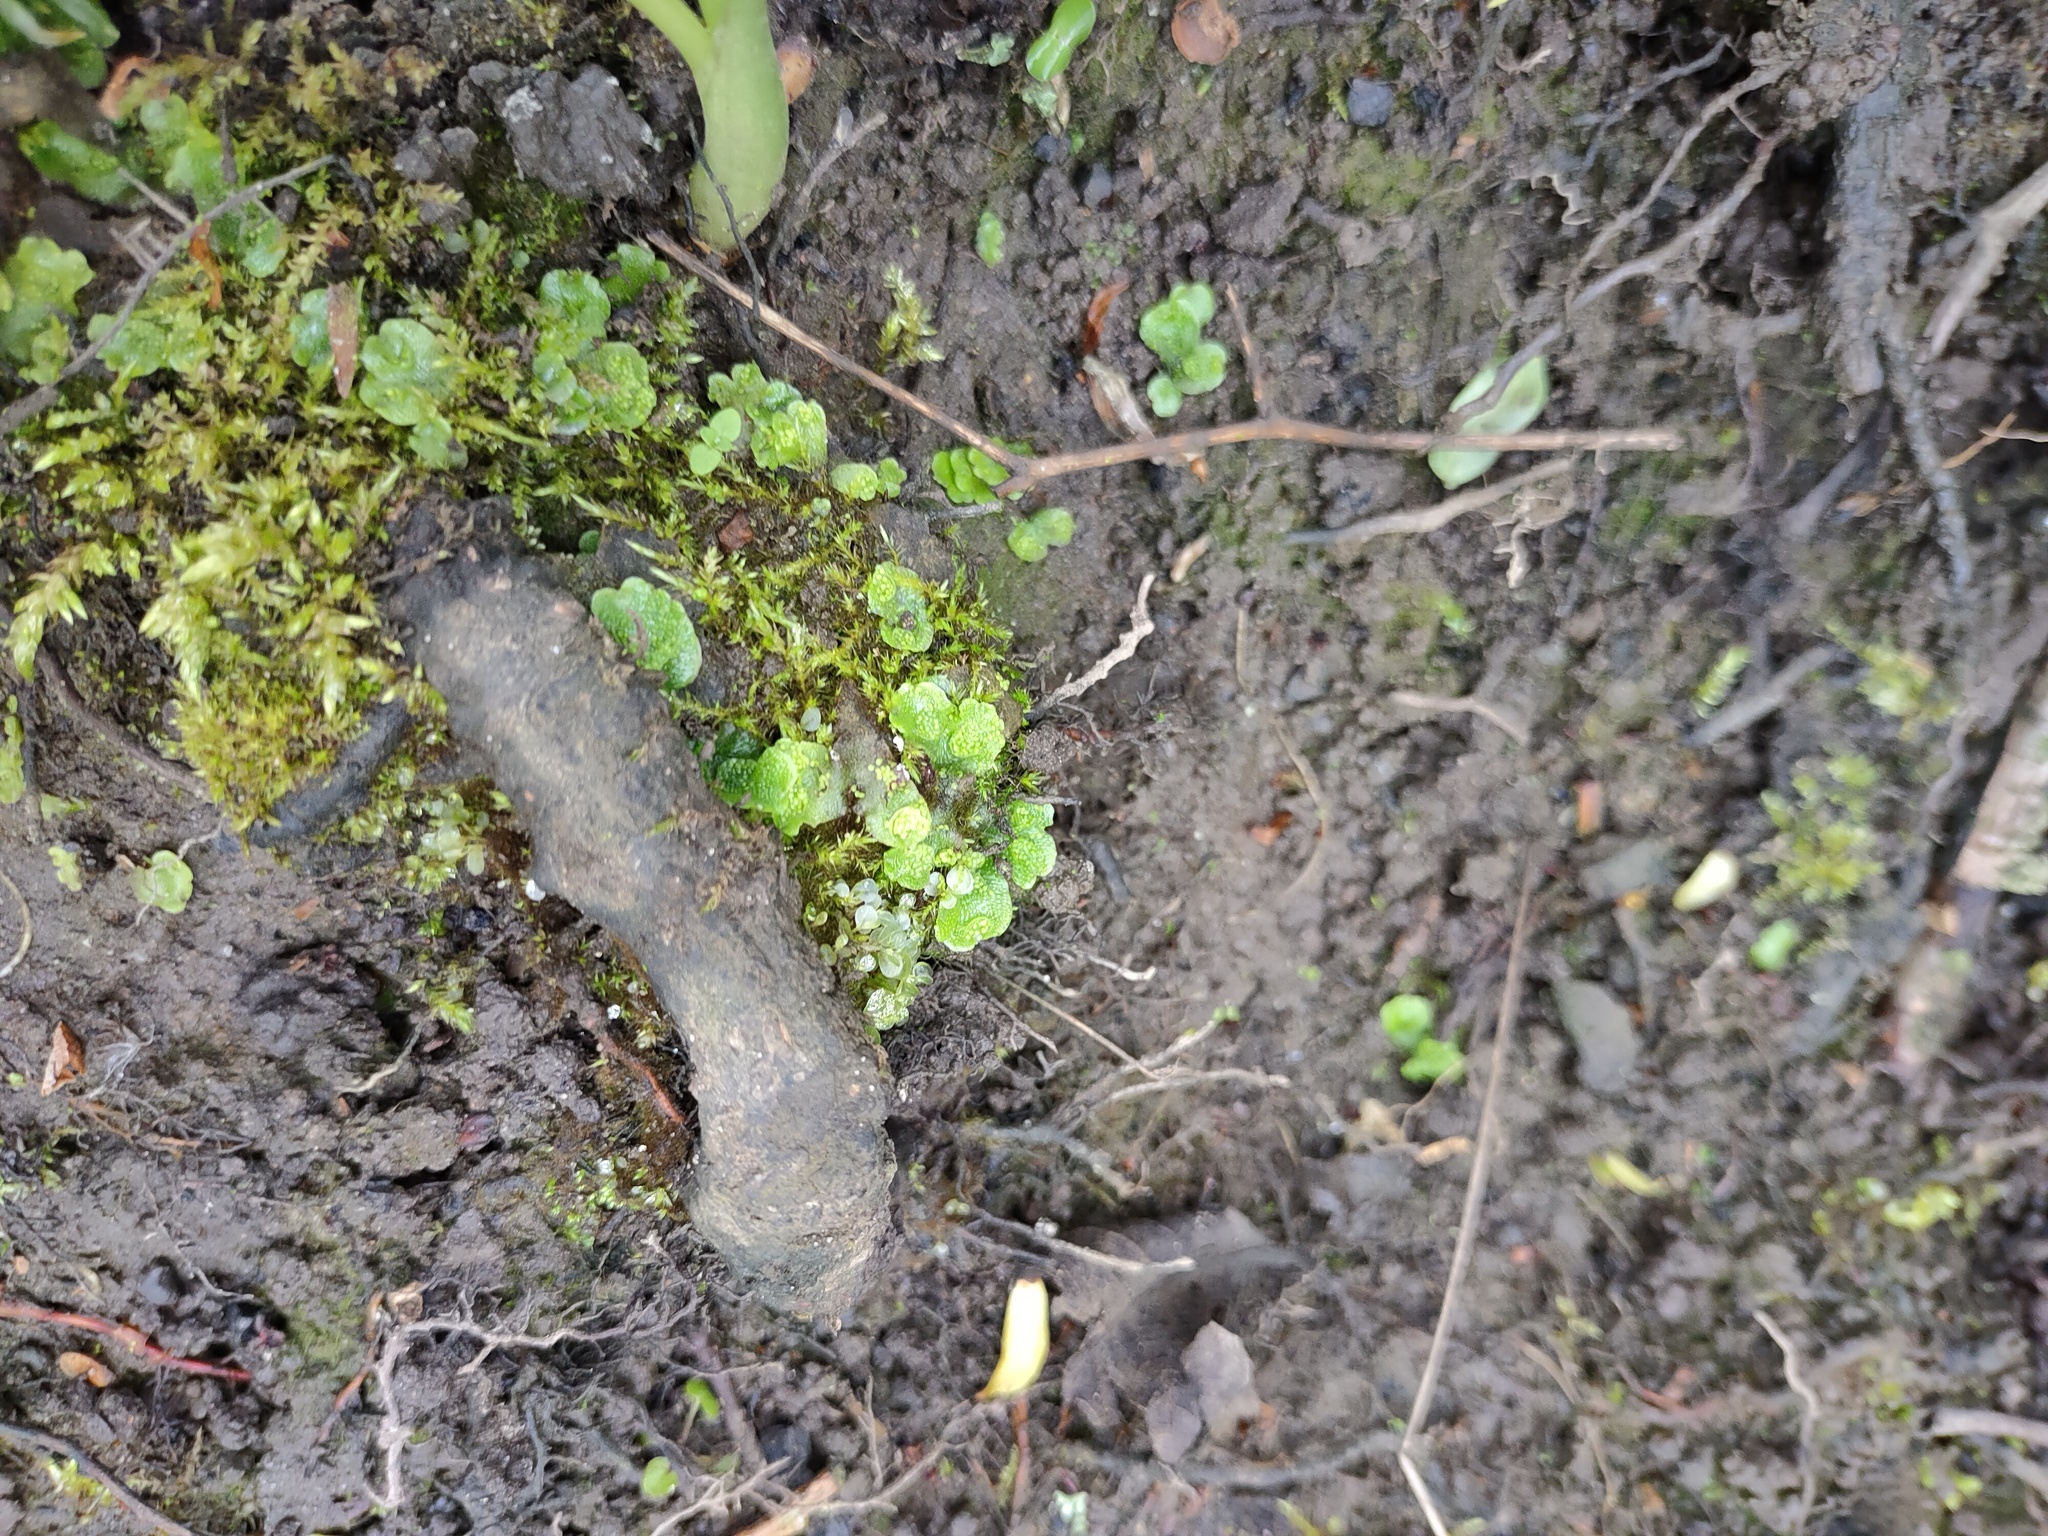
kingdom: Plantae
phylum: Marchantiophyta
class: Marchantiopsida
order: Lunulariales
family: Lunulariaceae
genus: Lunularia
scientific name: Lunularia cruciata
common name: Crescent-cup liverwort
